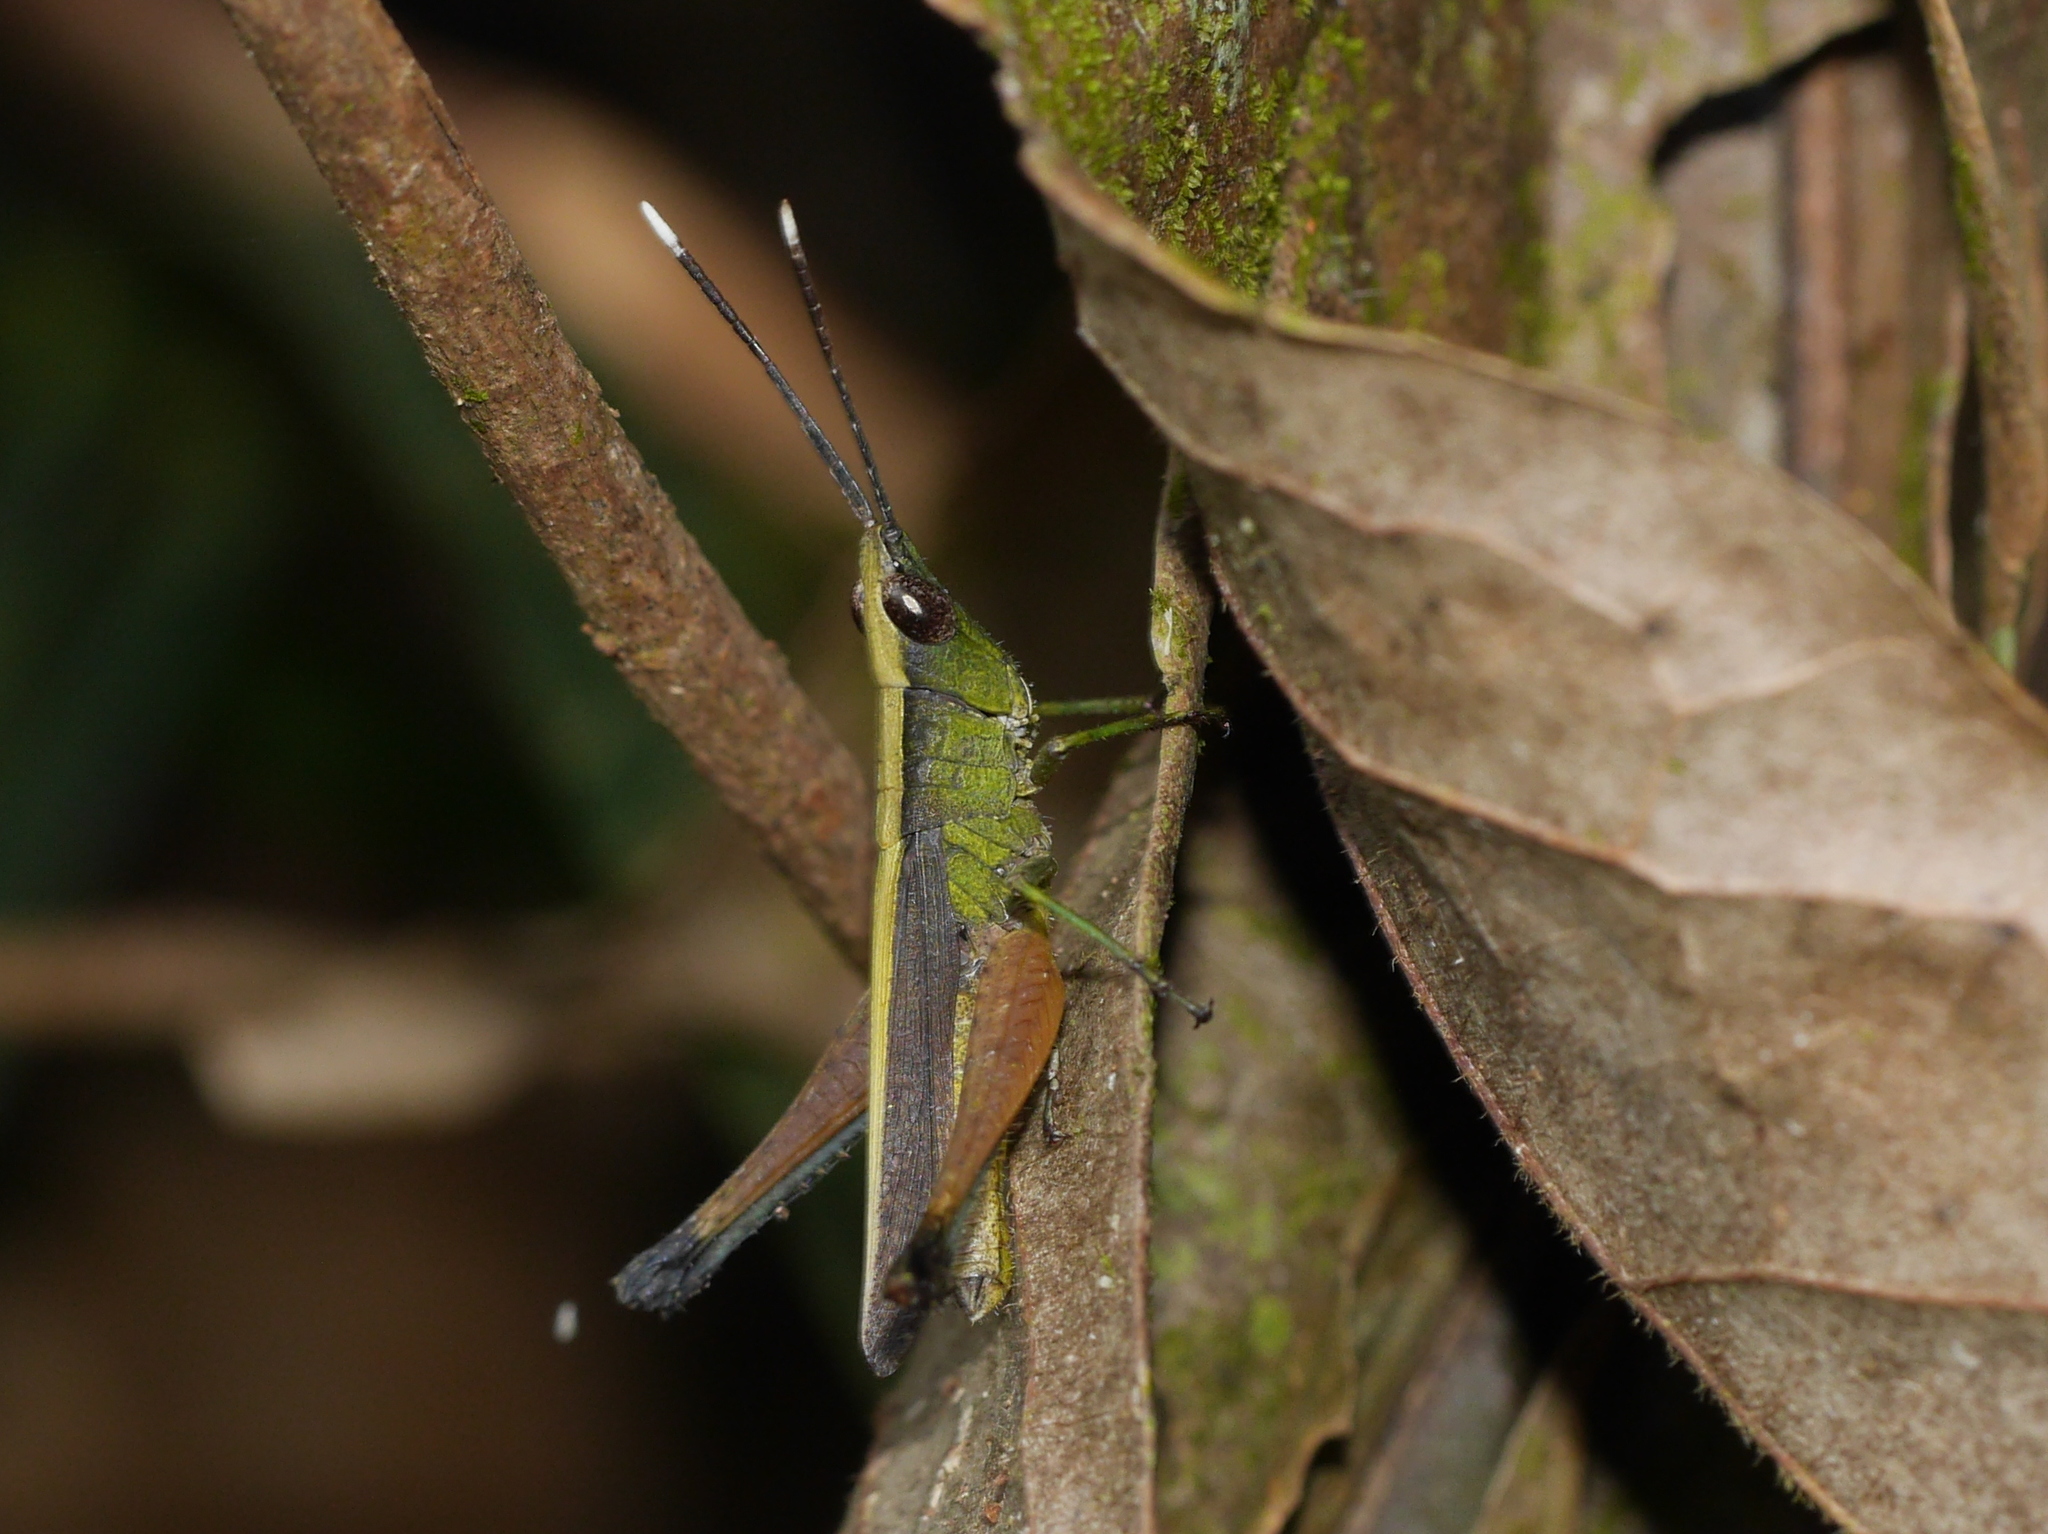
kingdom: Animalia
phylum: Arthropoda
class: Insecta
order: Orthoptera
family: Acrididae
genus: Phlaeoba
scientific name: Phlaeoba antennata
